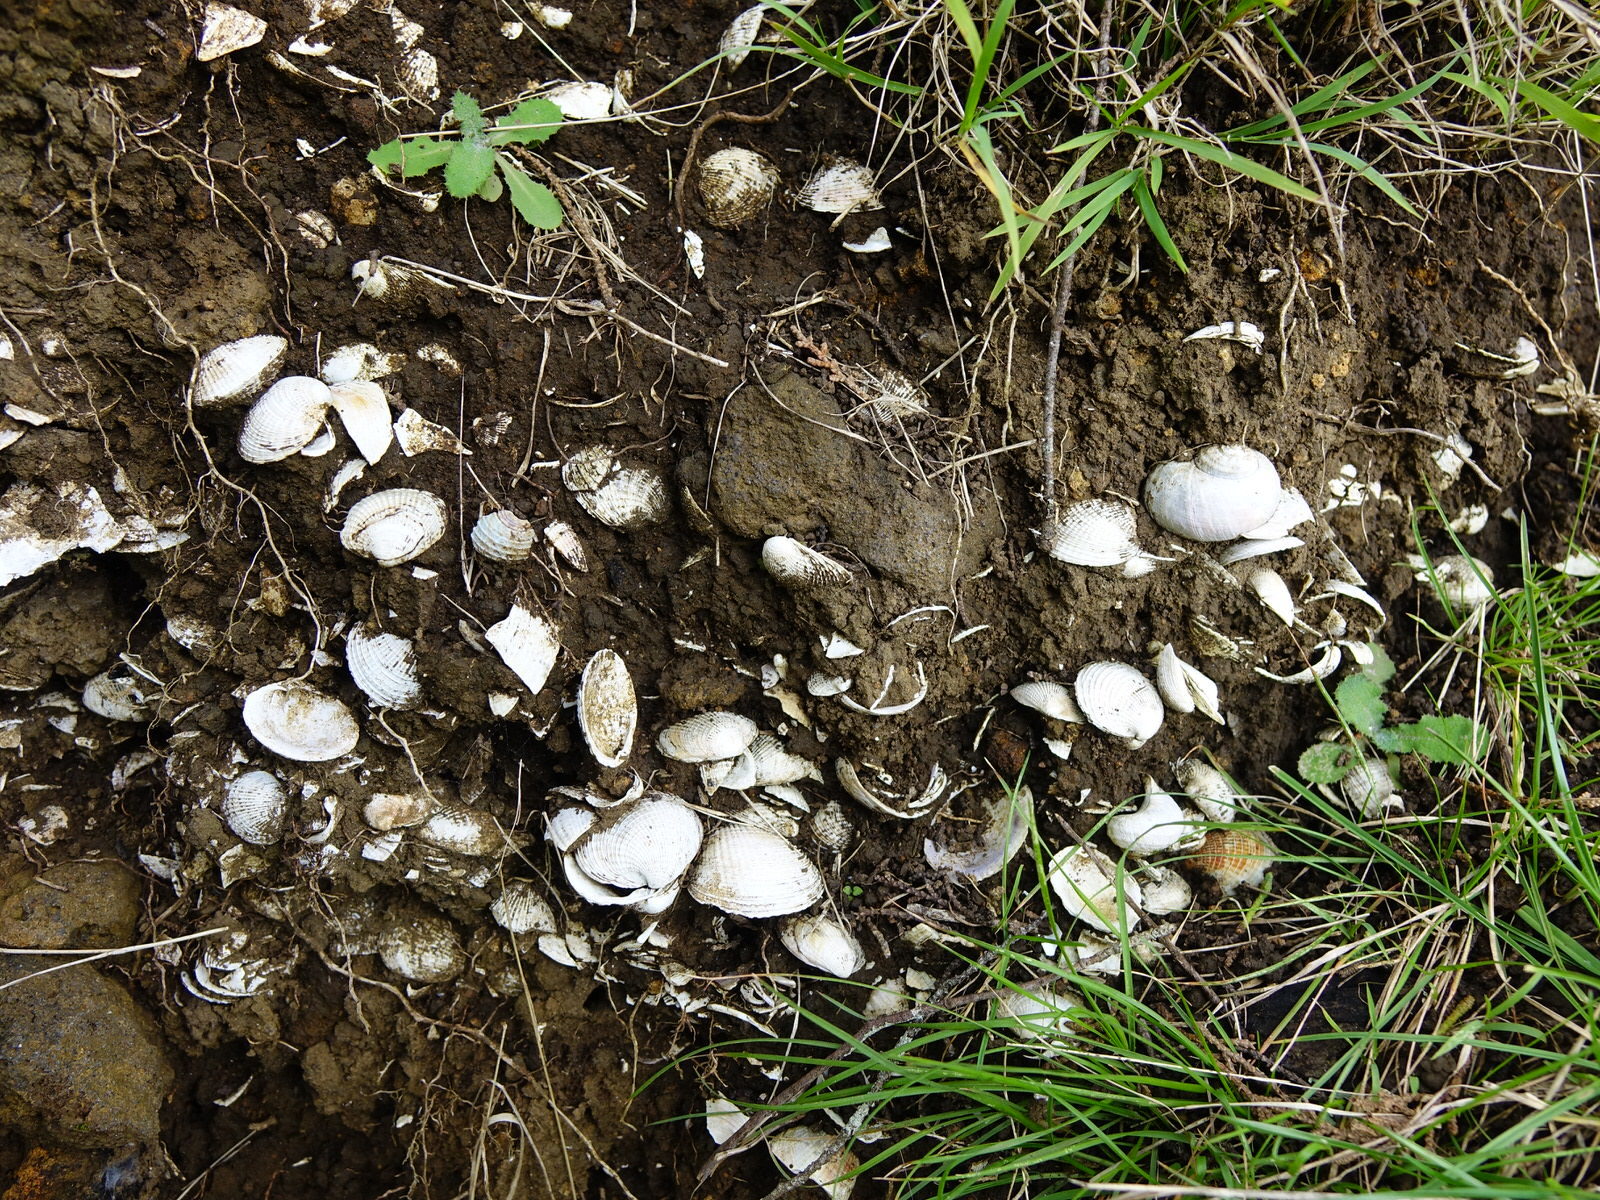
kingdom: Animalia
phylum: Mollusca
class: Bivalvia
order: Venerida
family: Veneridae
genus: Austrovenus
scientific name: Austrovenus stutchburyi
